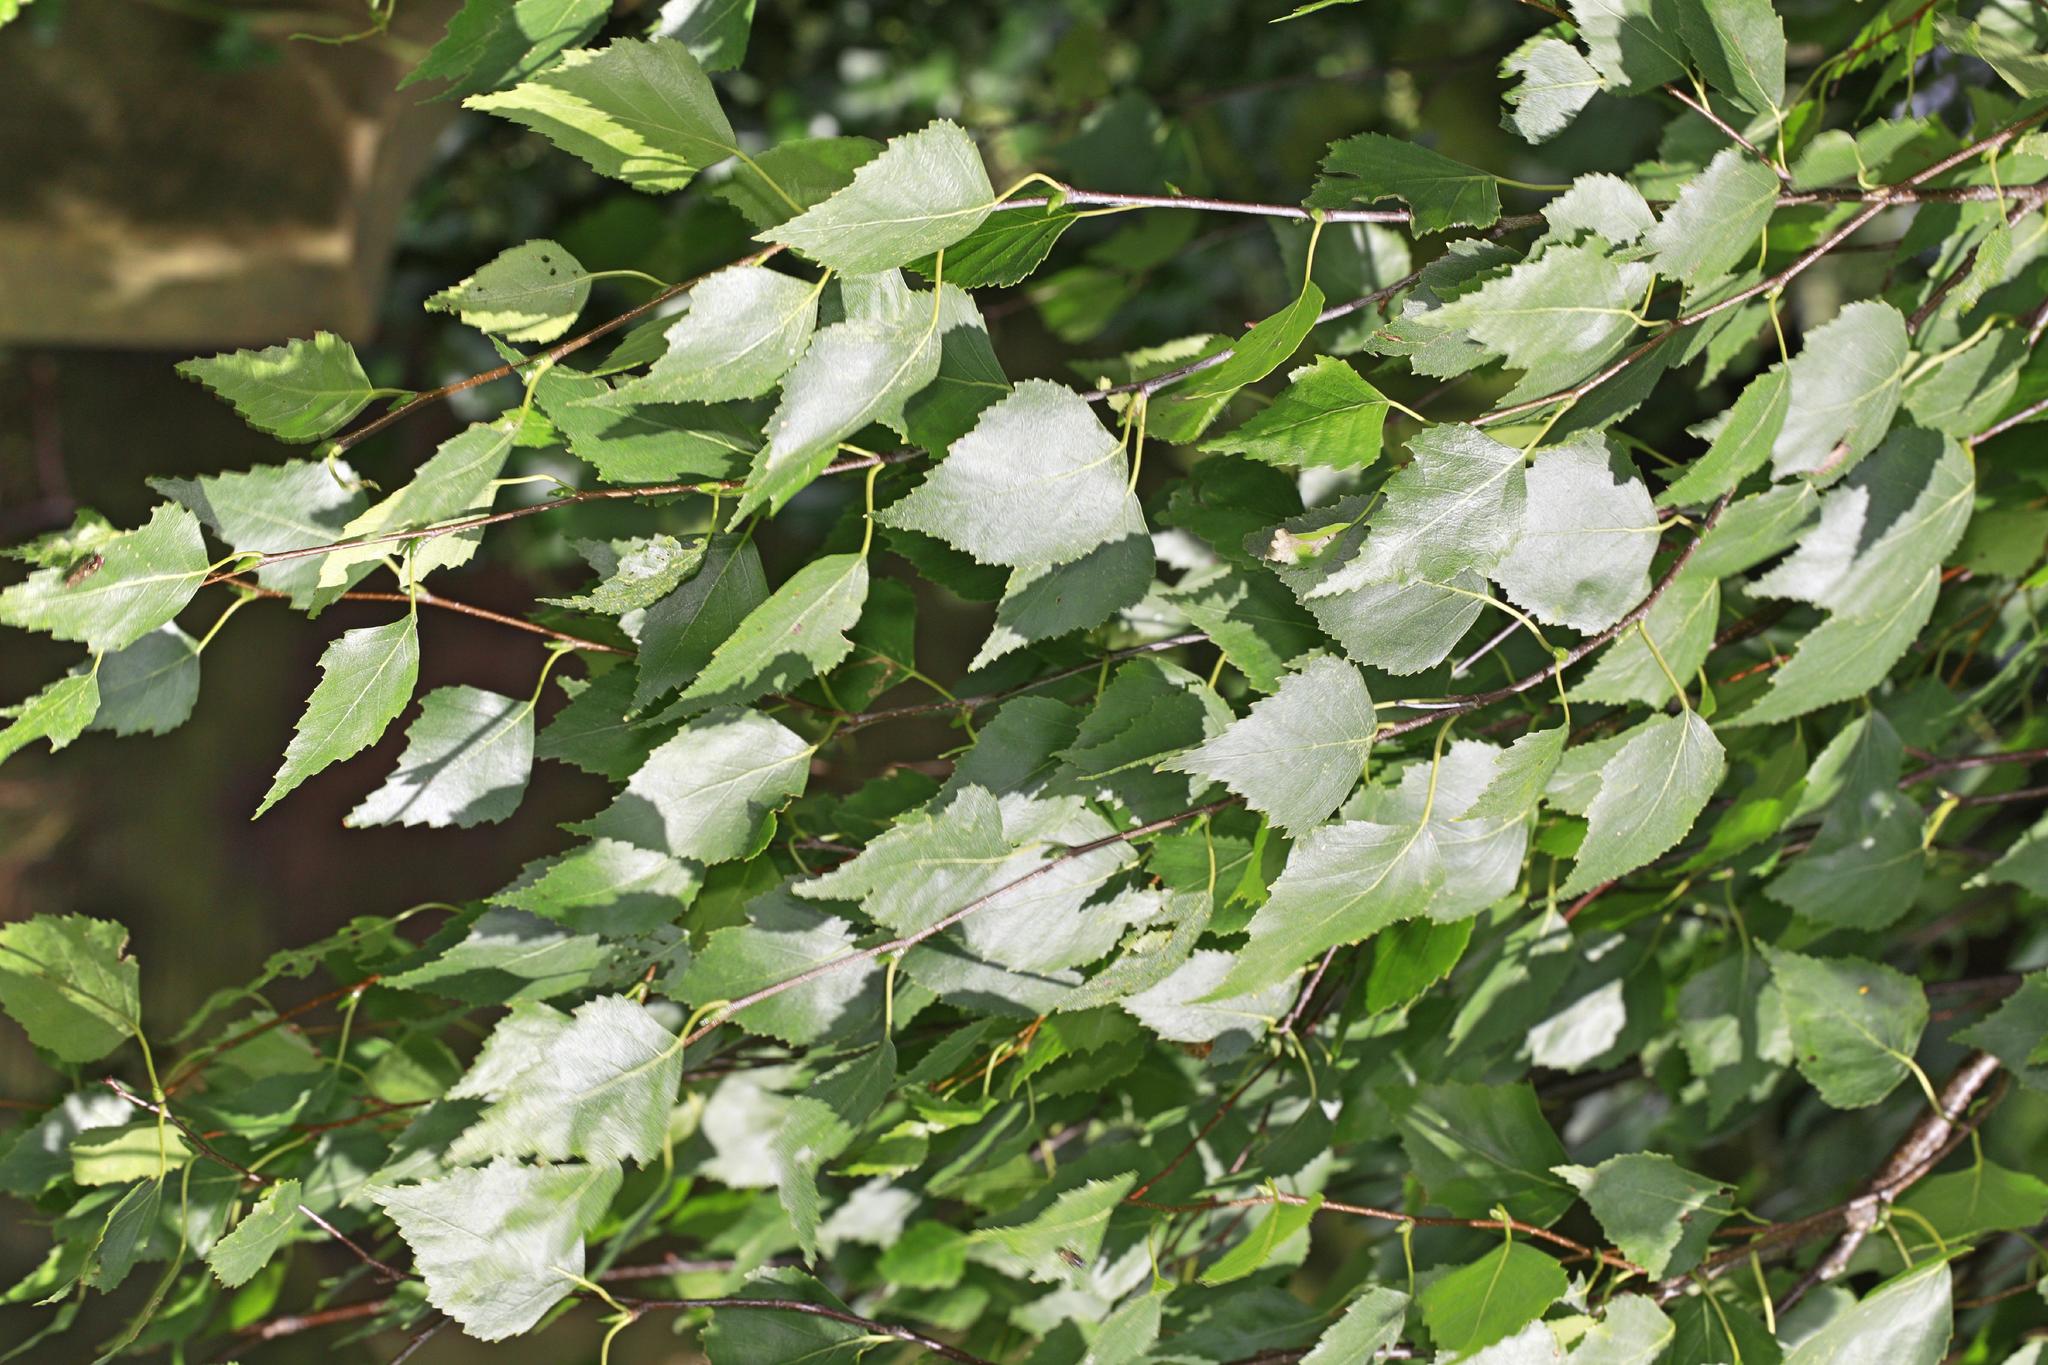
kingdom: Plantae
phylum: Tracheophyta
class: Magnoliopsida
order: Fagales
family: Betulaceae
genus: Betula
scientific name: Betula pendula
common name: Silver birch
